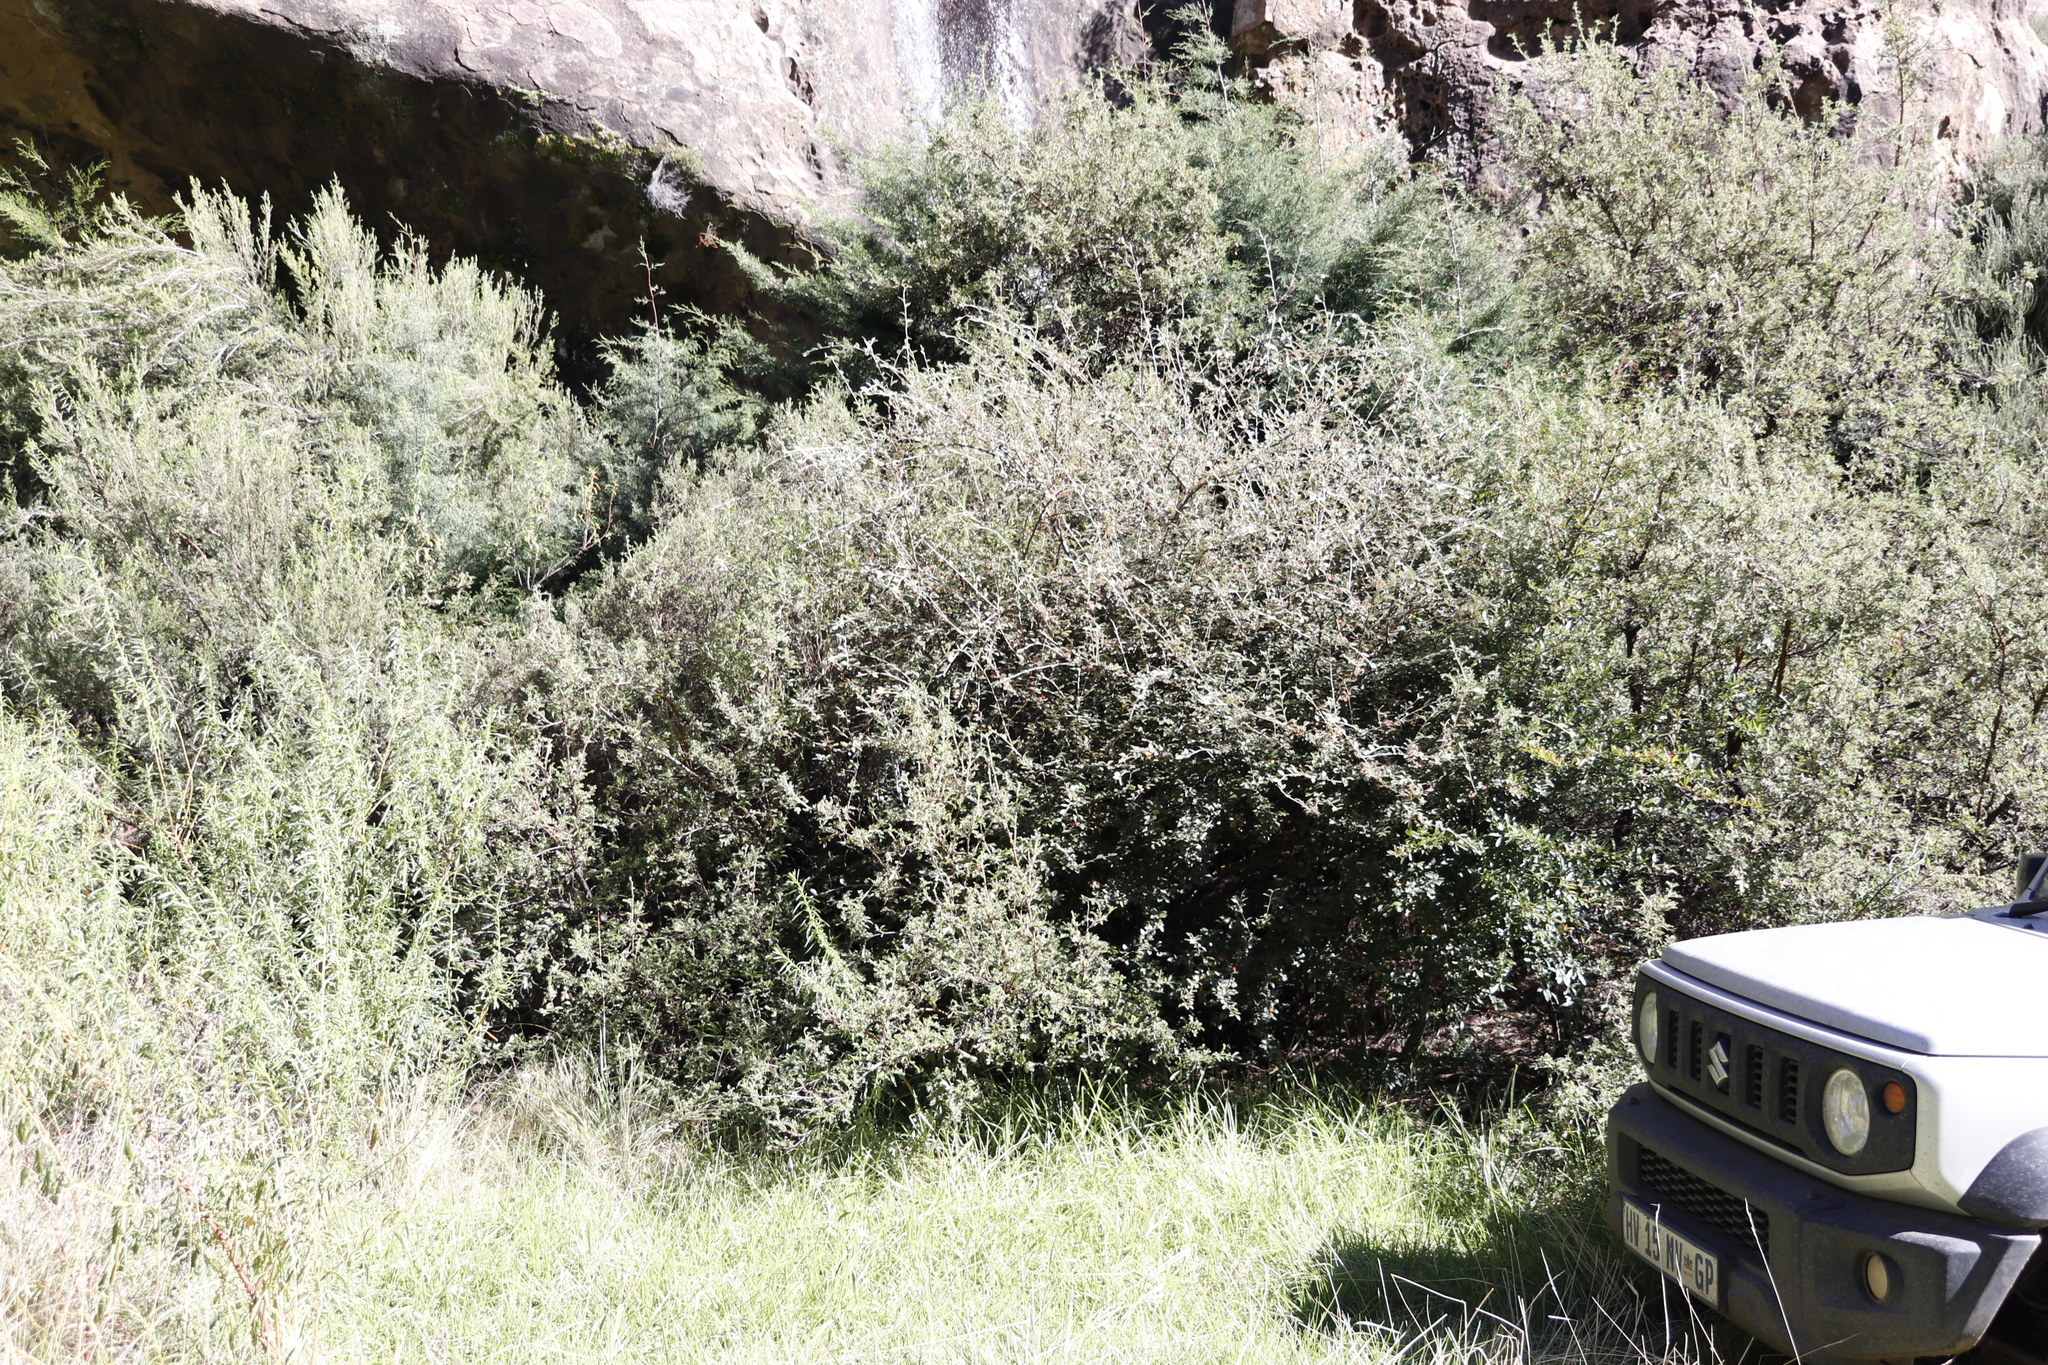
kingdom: Plantae
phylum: Tracheophyta
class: Magnoliopsida
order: Rosales
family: Rosaceae
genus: Cotoneaster
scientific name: Cotoneaster franchetii
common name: Franchet's cotoneaster
